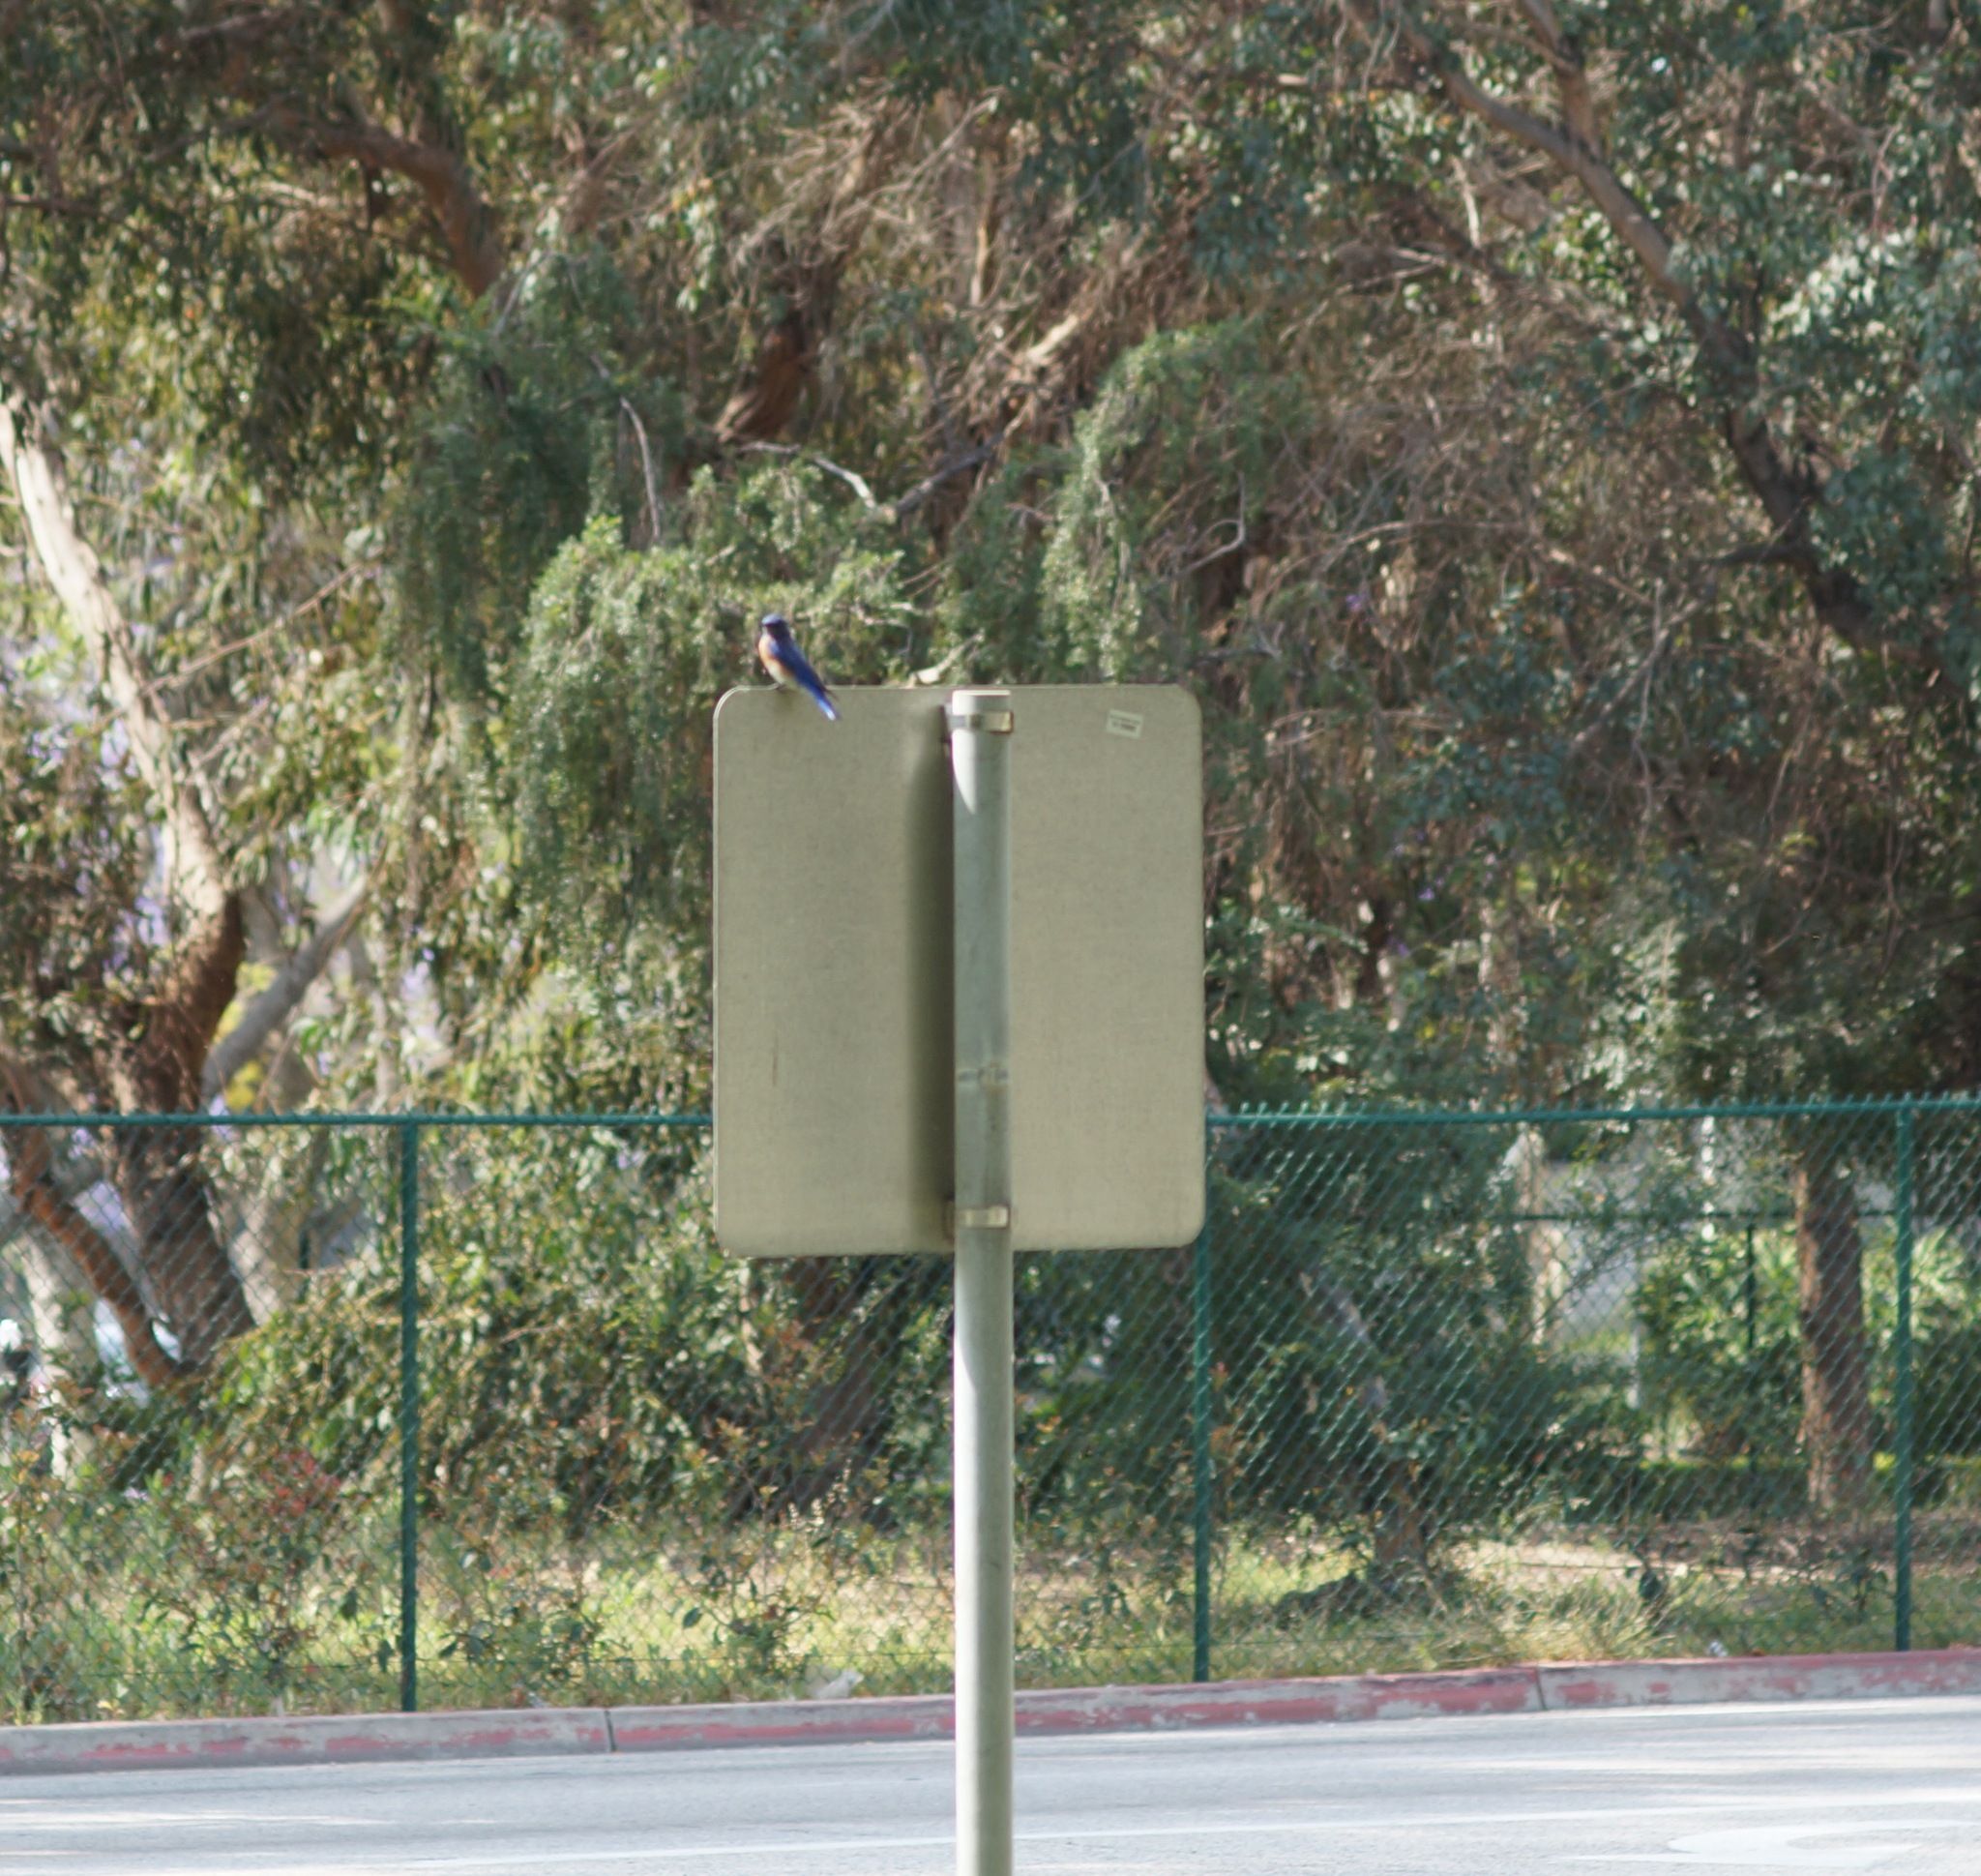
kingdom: Animalia
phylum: Chordata
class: Aves
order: Passeriformes
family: Turdidae
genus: Sialia
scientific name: Sialia mexicana
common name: Western bluebird
